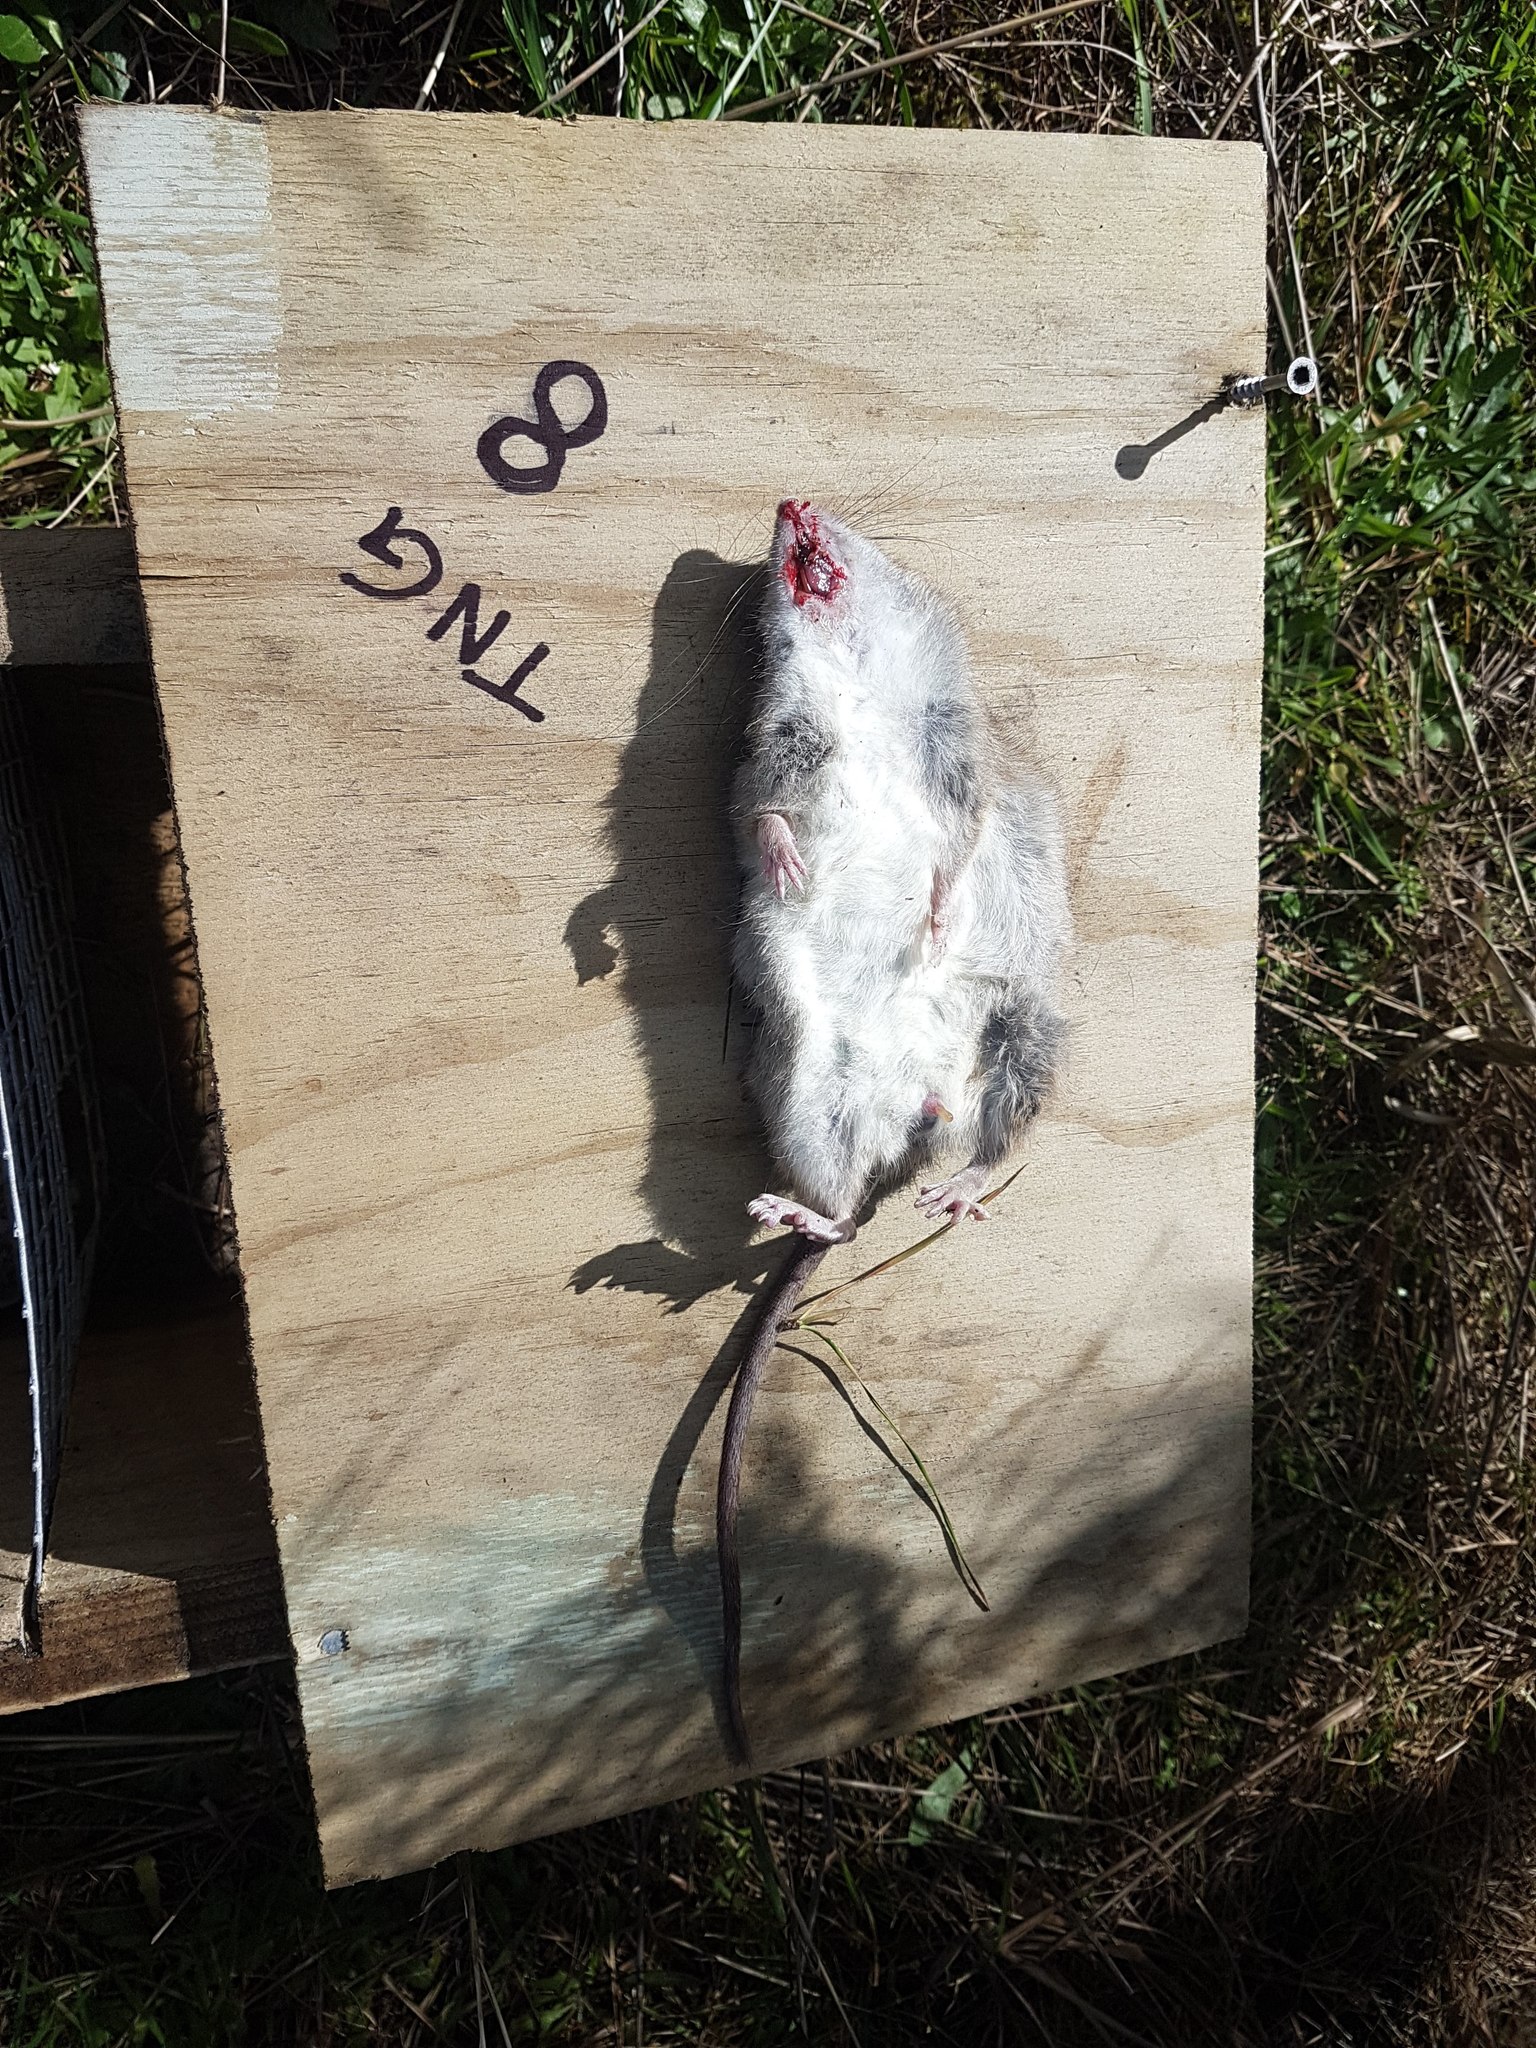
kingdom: Animalia
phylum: Chordata
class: Mammalia
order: Rodentia
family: Muridae
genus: Rattus
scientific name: Rattus norvegicus
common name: Brown rat
